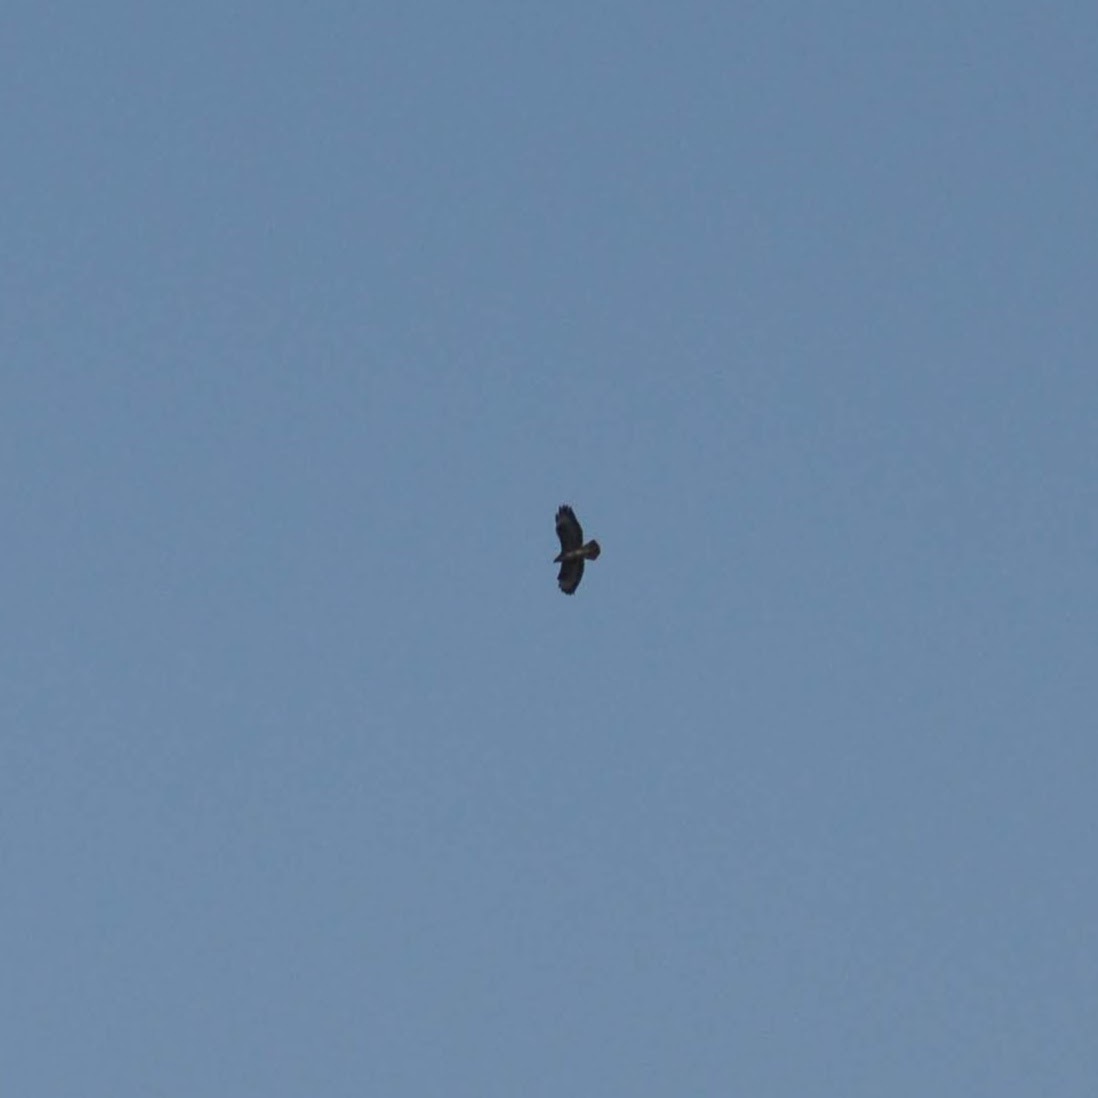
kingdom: Animalia
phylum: Chordata
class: Aves
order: Accipitriformes
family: Accipitridae
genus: Buteo
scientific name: Buteo buteo
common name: Common buzzard
